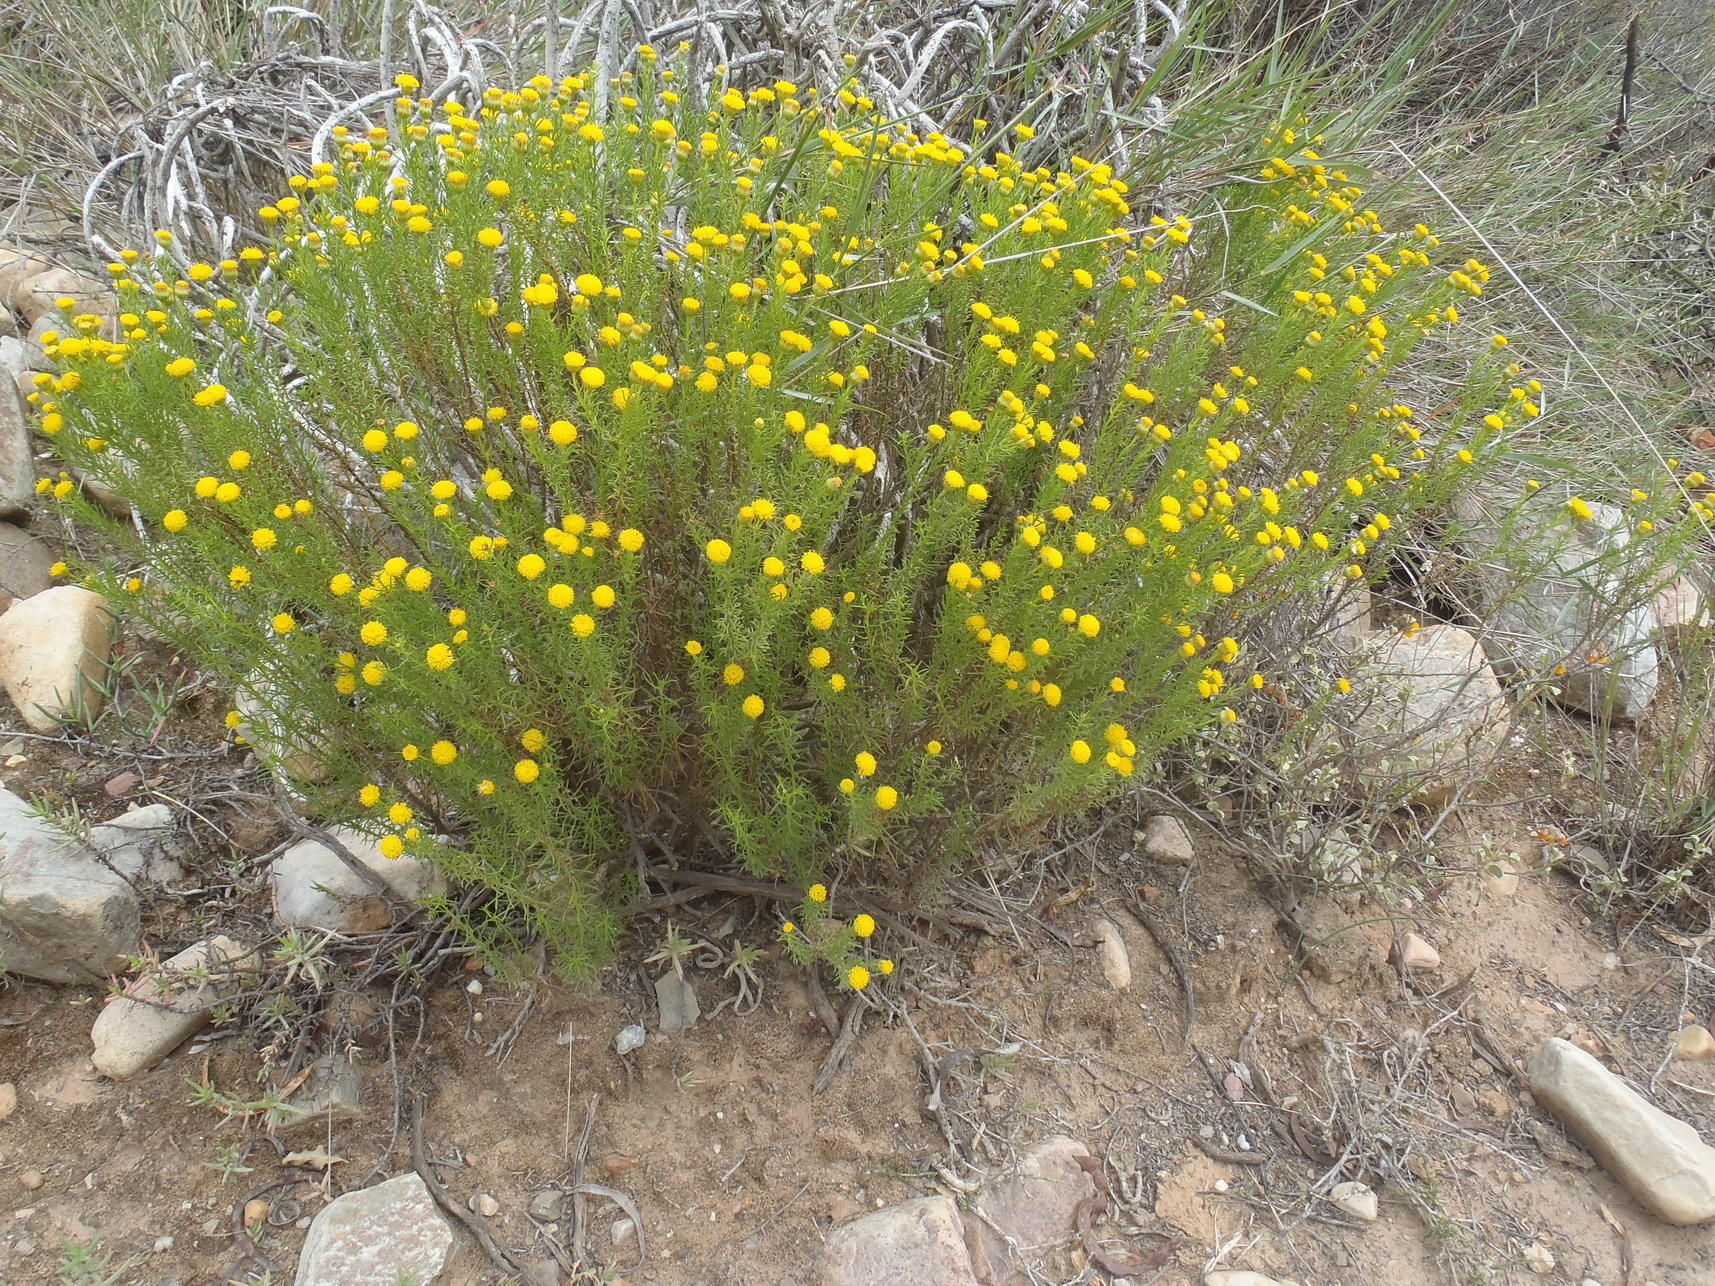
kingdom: Plantae
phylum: Tracheophyta
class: Magnoliopsida
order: Asterales
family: Asteraceae
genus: Chrysocoma
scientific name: Chrysocoma ciliata
